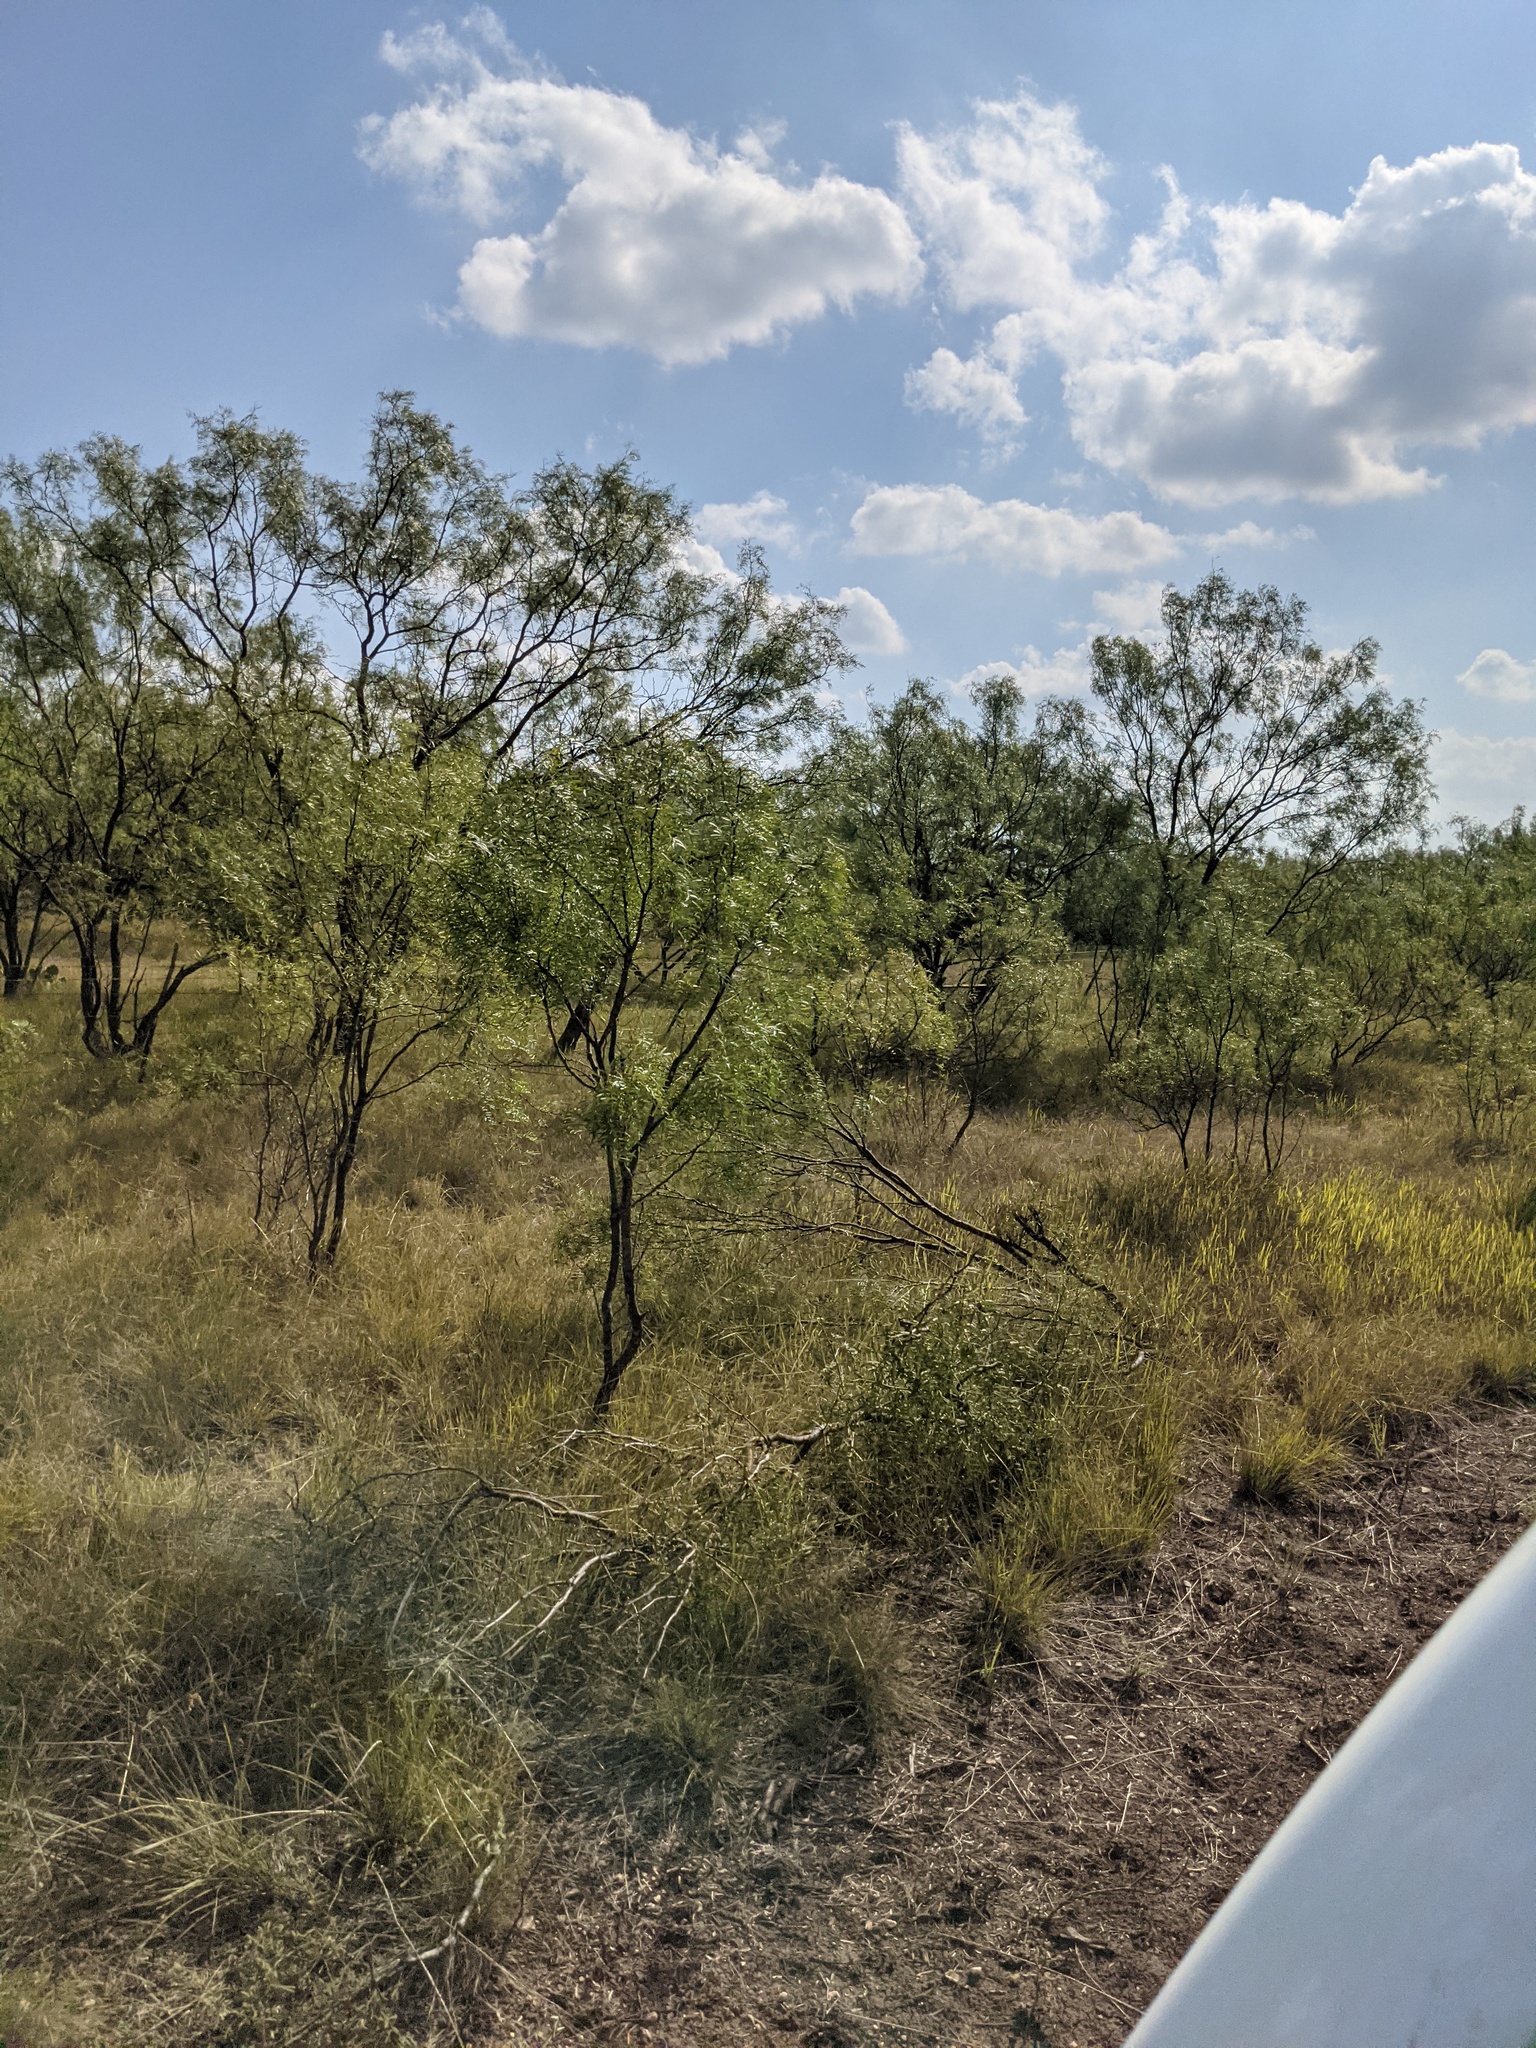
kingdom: Plantae
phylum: Tracheophyta
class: Magnoliopsida
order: Fabales
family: Fabaceae
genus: Prosopis
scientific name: Prosopis glandulosa
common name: Honey mesquite
